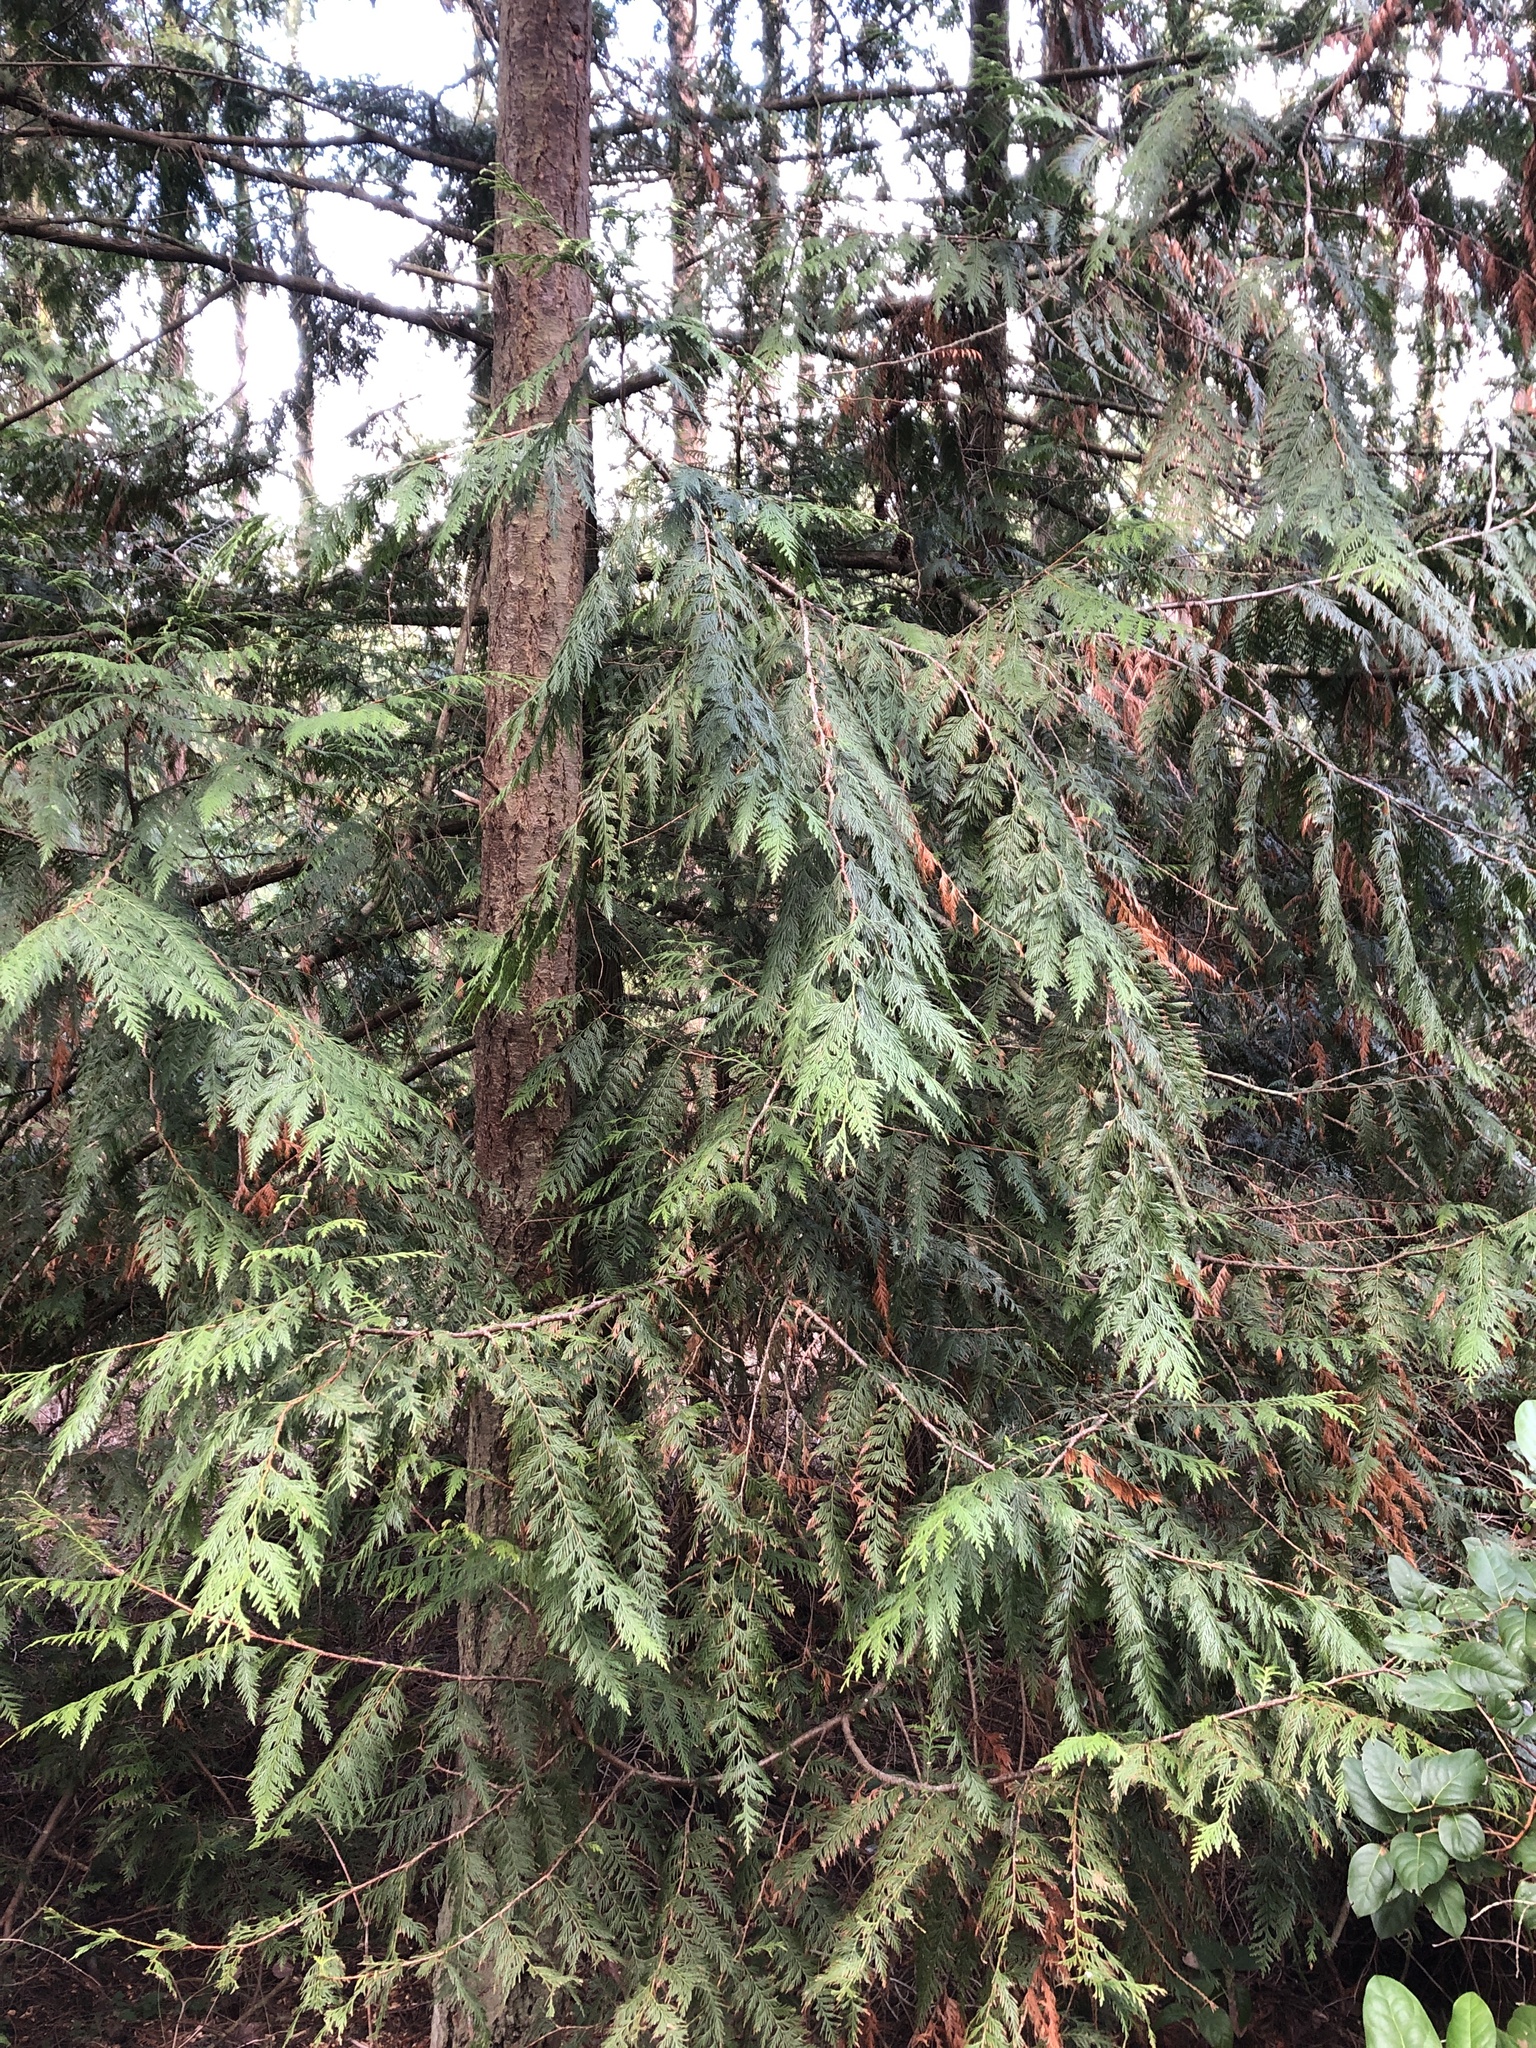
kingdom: Plantae
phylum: Tracheophyta
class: Pinopsida
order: Pinales
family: Cupressaceae
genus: Thuja
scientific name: Thuja plicata
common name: Western red-cedar
